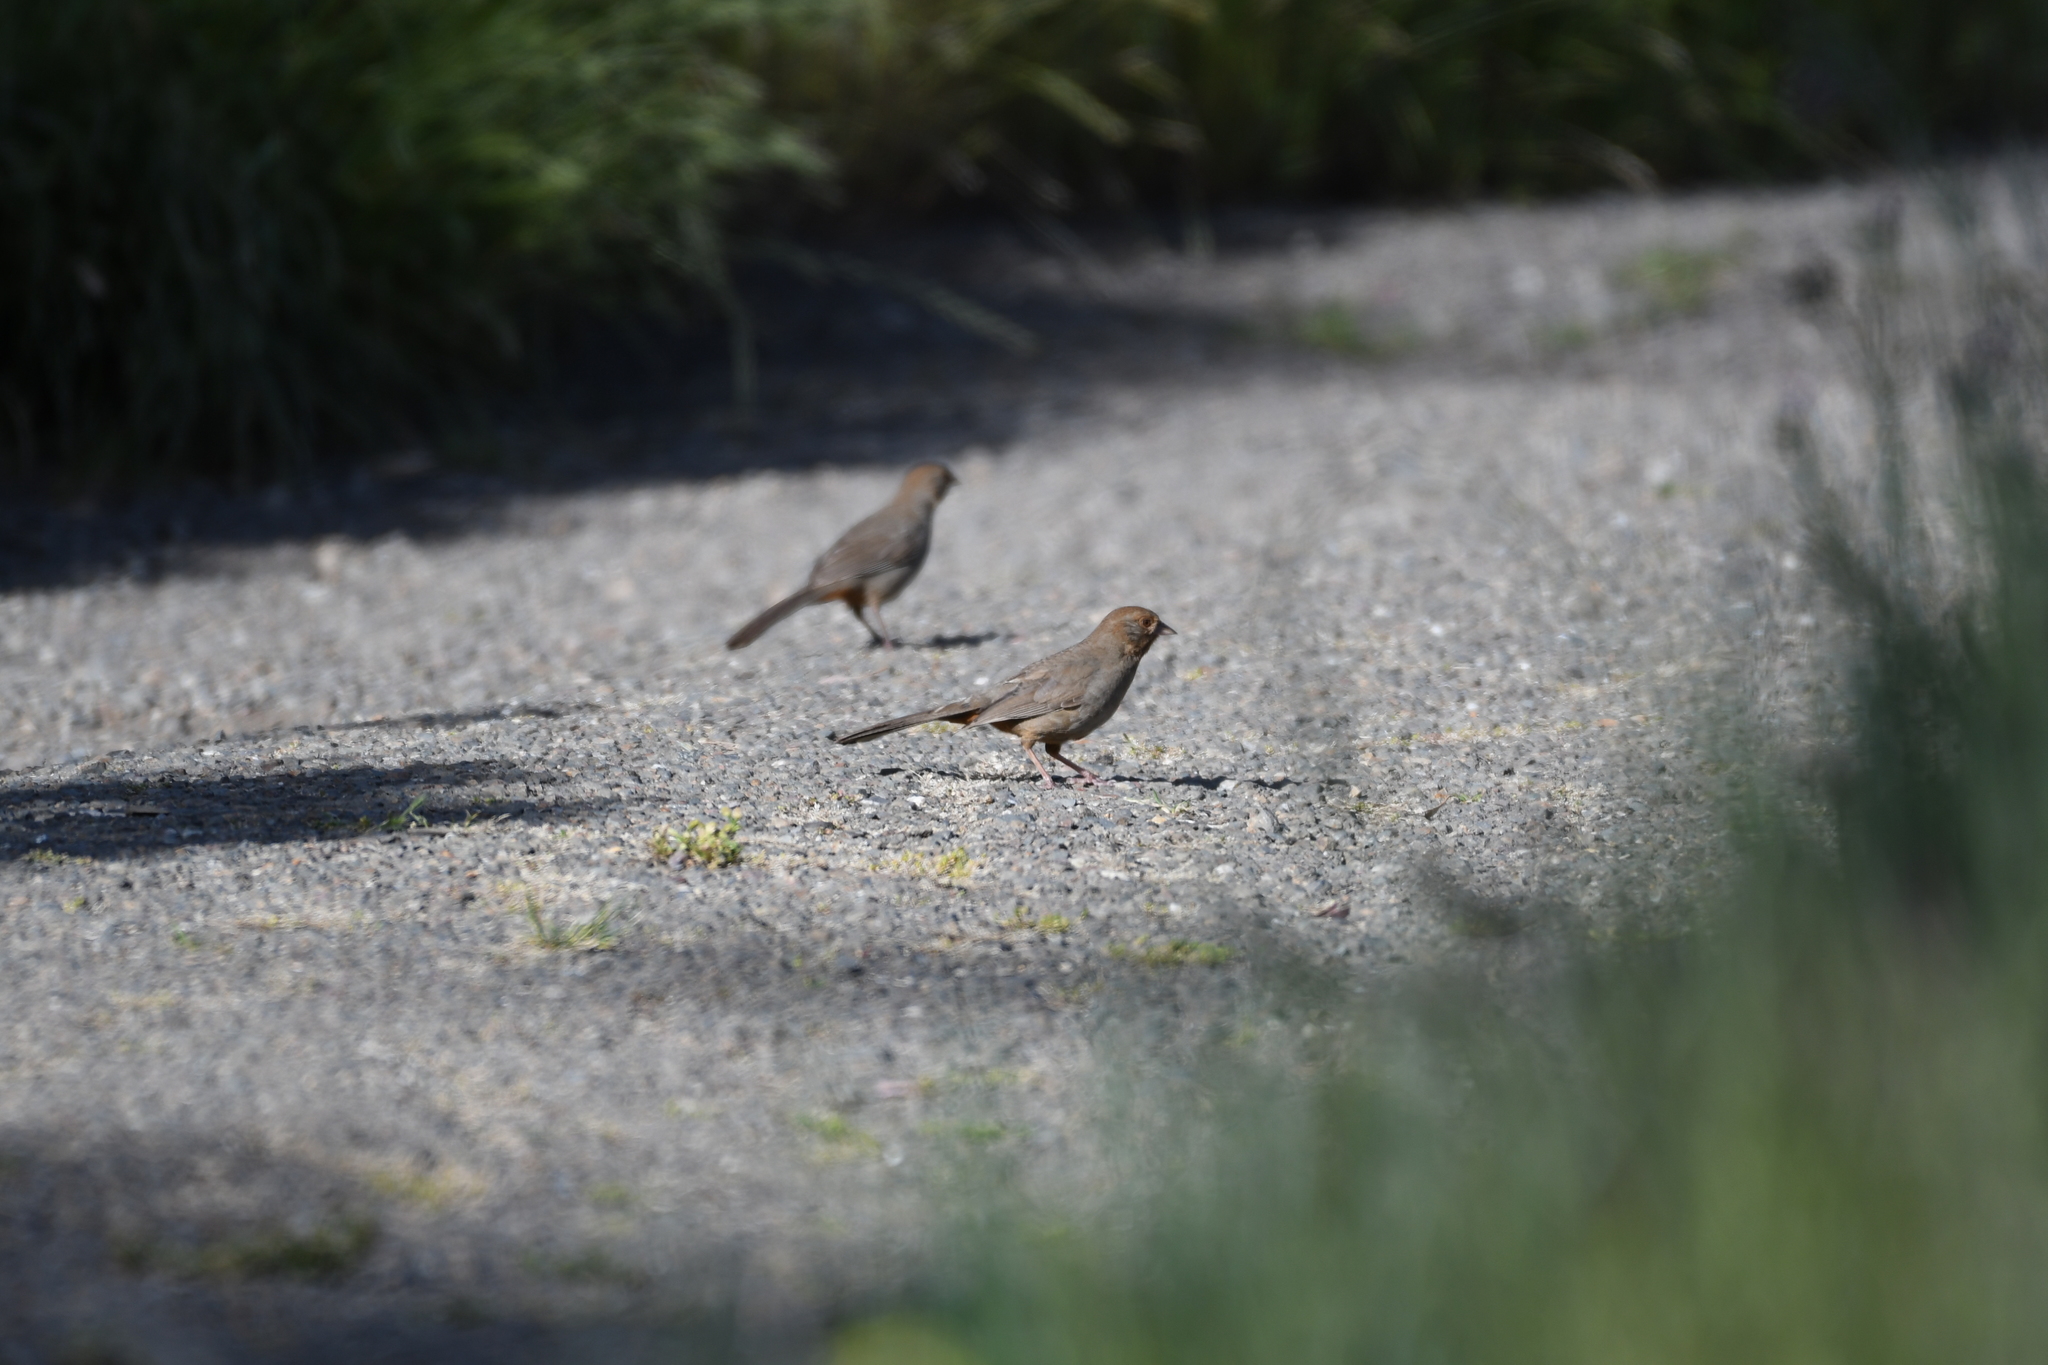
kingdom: Animalia
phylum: Chordata
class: Aves
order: Passeriformes
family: Passerellidae
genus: Melozone
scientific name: Melozone crissalis
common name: California towhee
